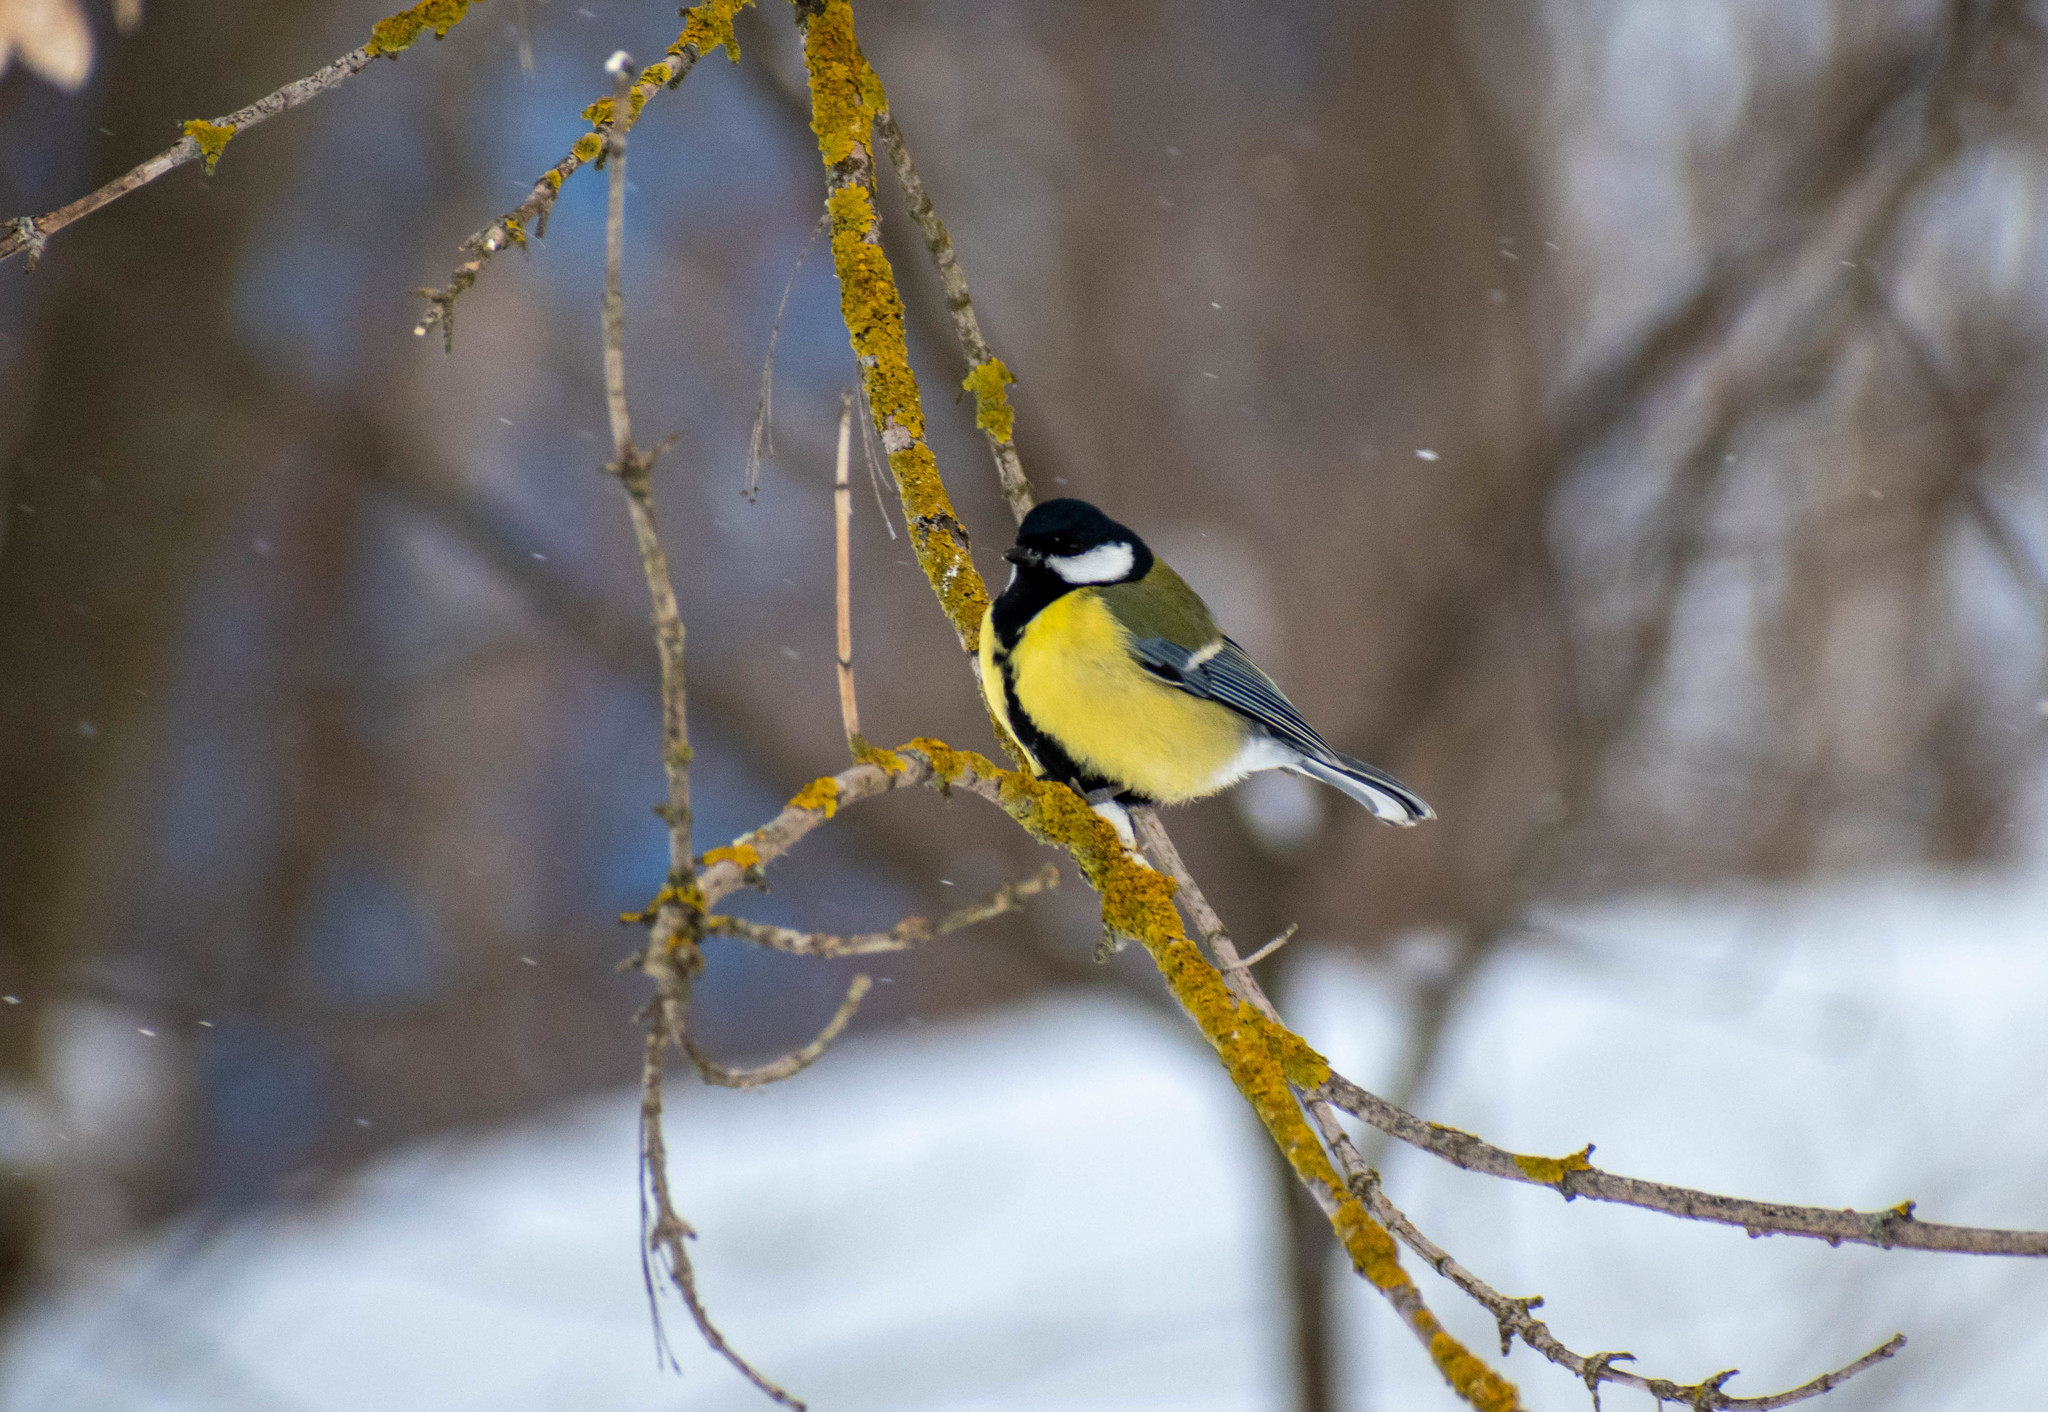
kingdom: Animalia
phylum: Chordata
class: Aves
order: Passeriformes
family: Paridae
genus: Parus
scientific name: Parus major
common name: Great tit
